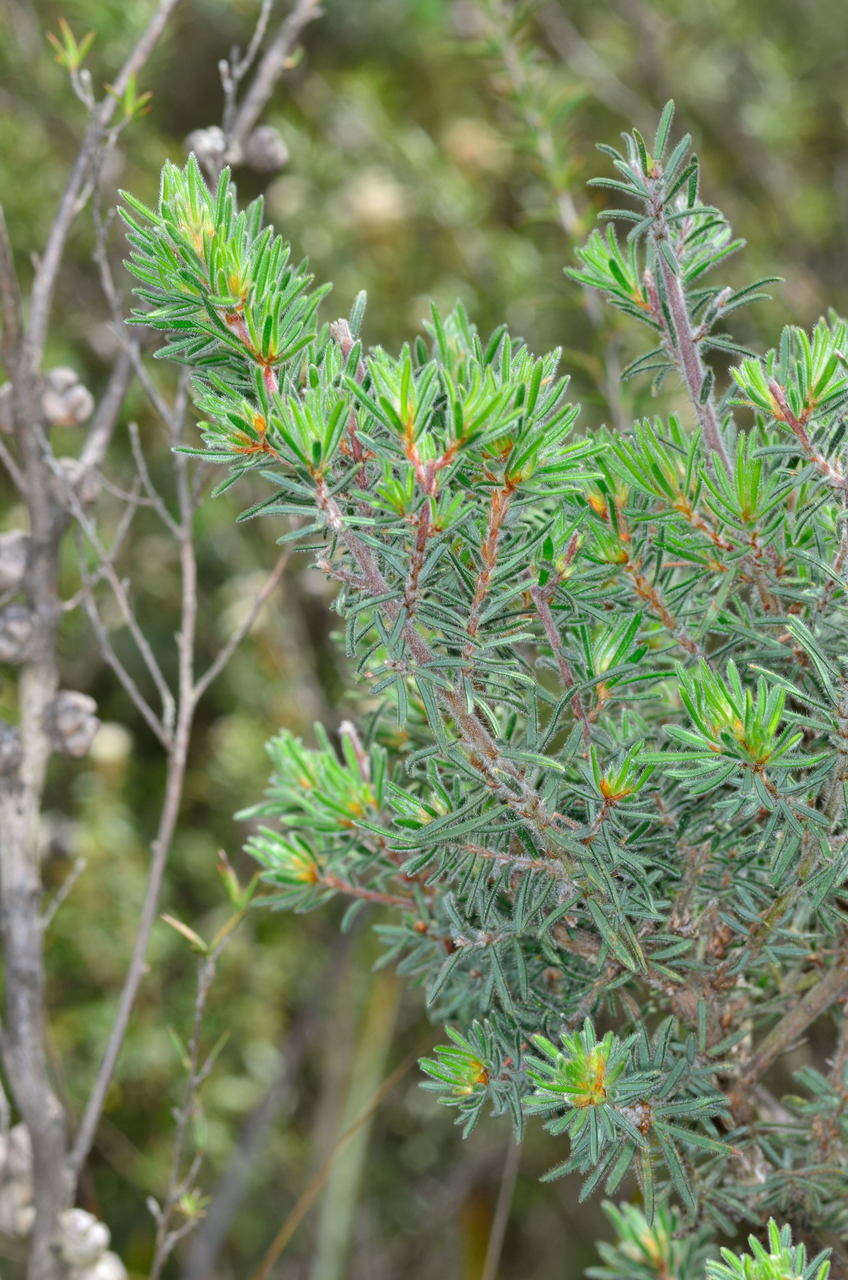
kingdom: Plantae
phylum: Tracheophyta
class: Magnoliopsida
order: Fabales
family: Fabaceae
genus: Pultenaea
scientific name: Pultenaea daltonii
